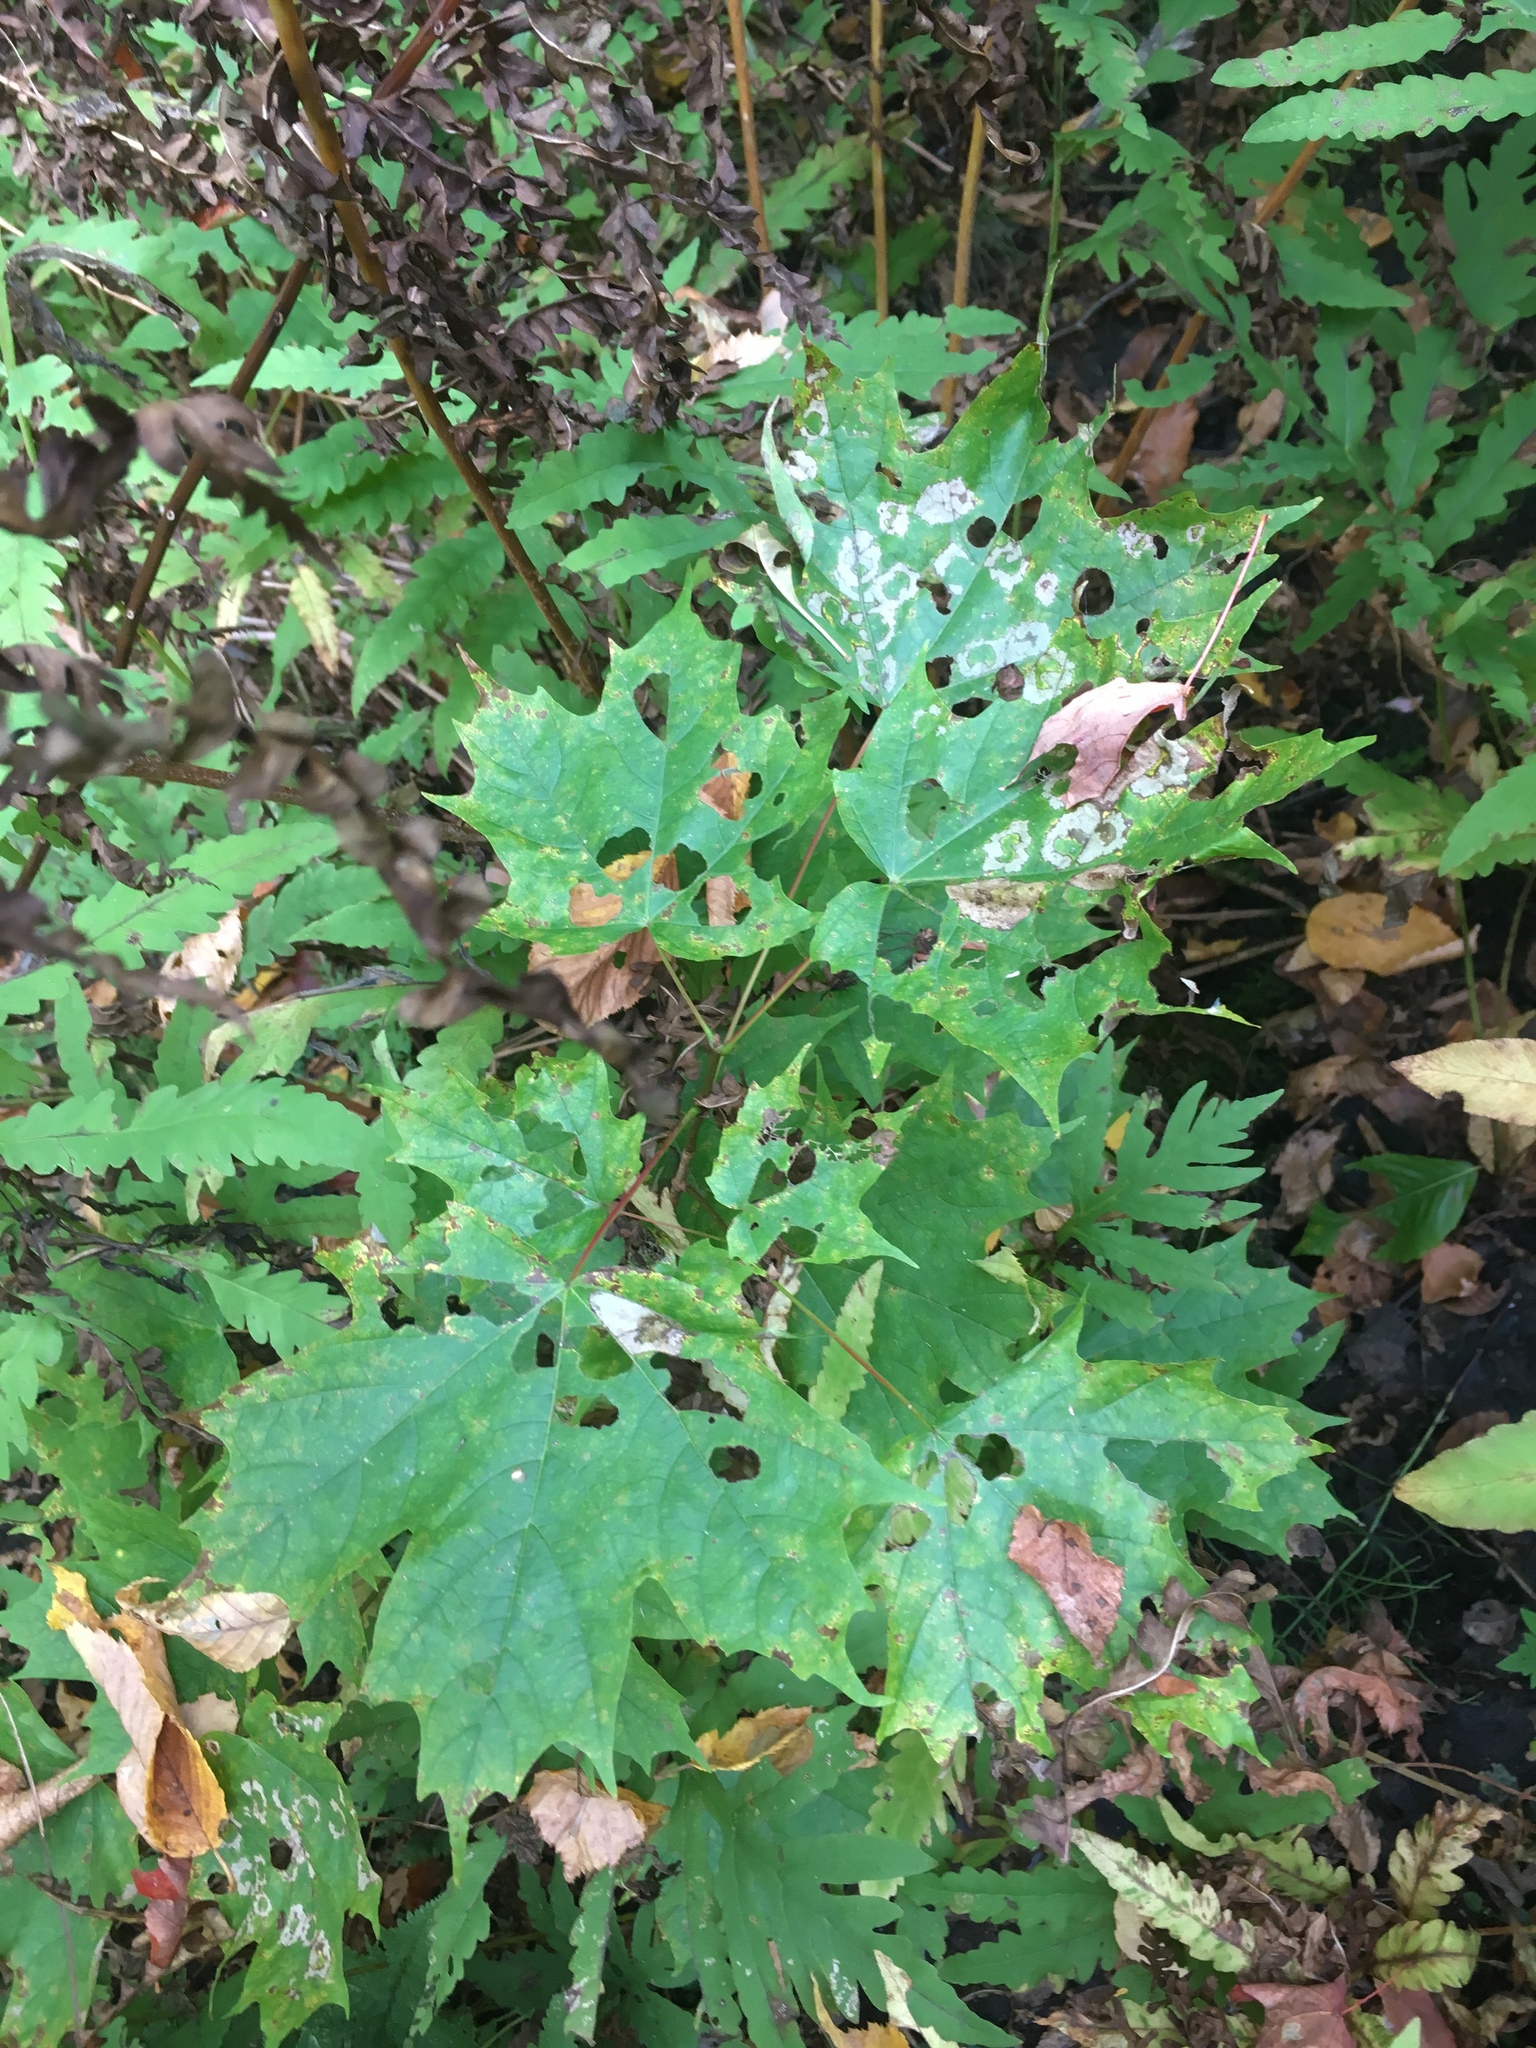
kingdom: Plantae
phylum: Tracheophyta
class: Magnoliopsida
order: Sapindales
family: Sapindaceae
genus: Acer
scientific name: Acer saccharum
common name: Sugar maple
